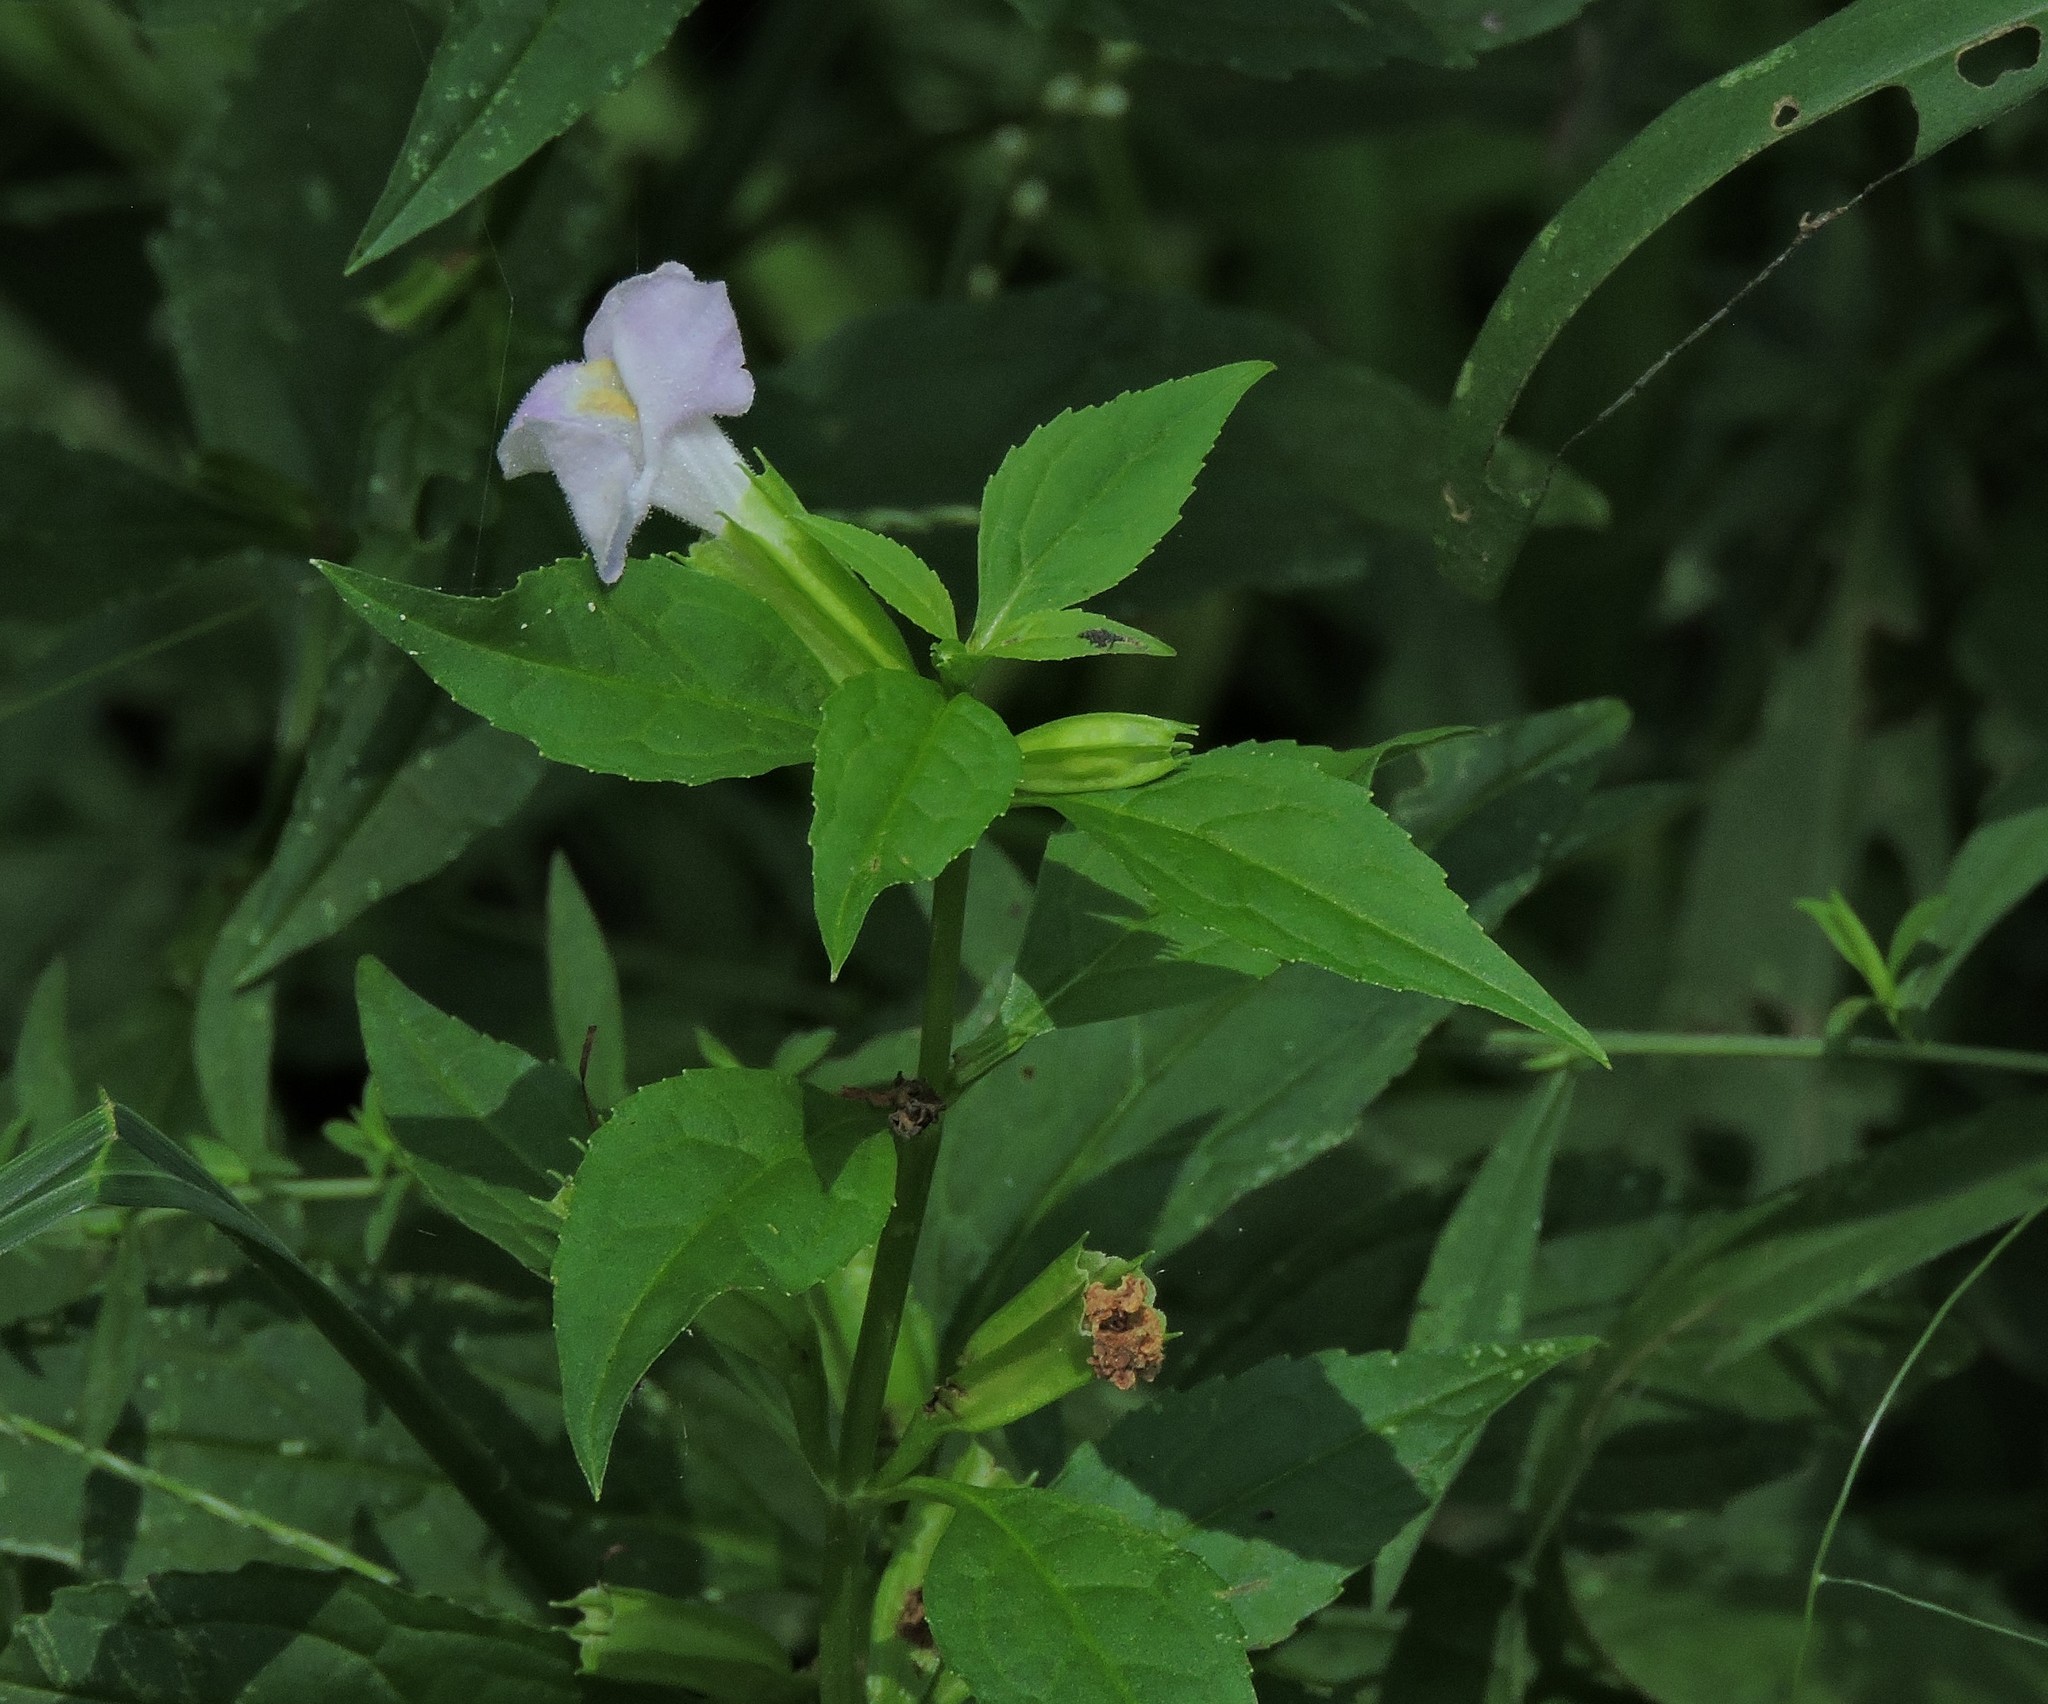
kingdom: Plantae
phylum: Tracheophyta
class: Magnoliopsida
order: Lamiales
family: Phrymaceae
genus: Mimulus
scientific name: Mimulus alatus
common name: Sharp-wing monkey-flower
